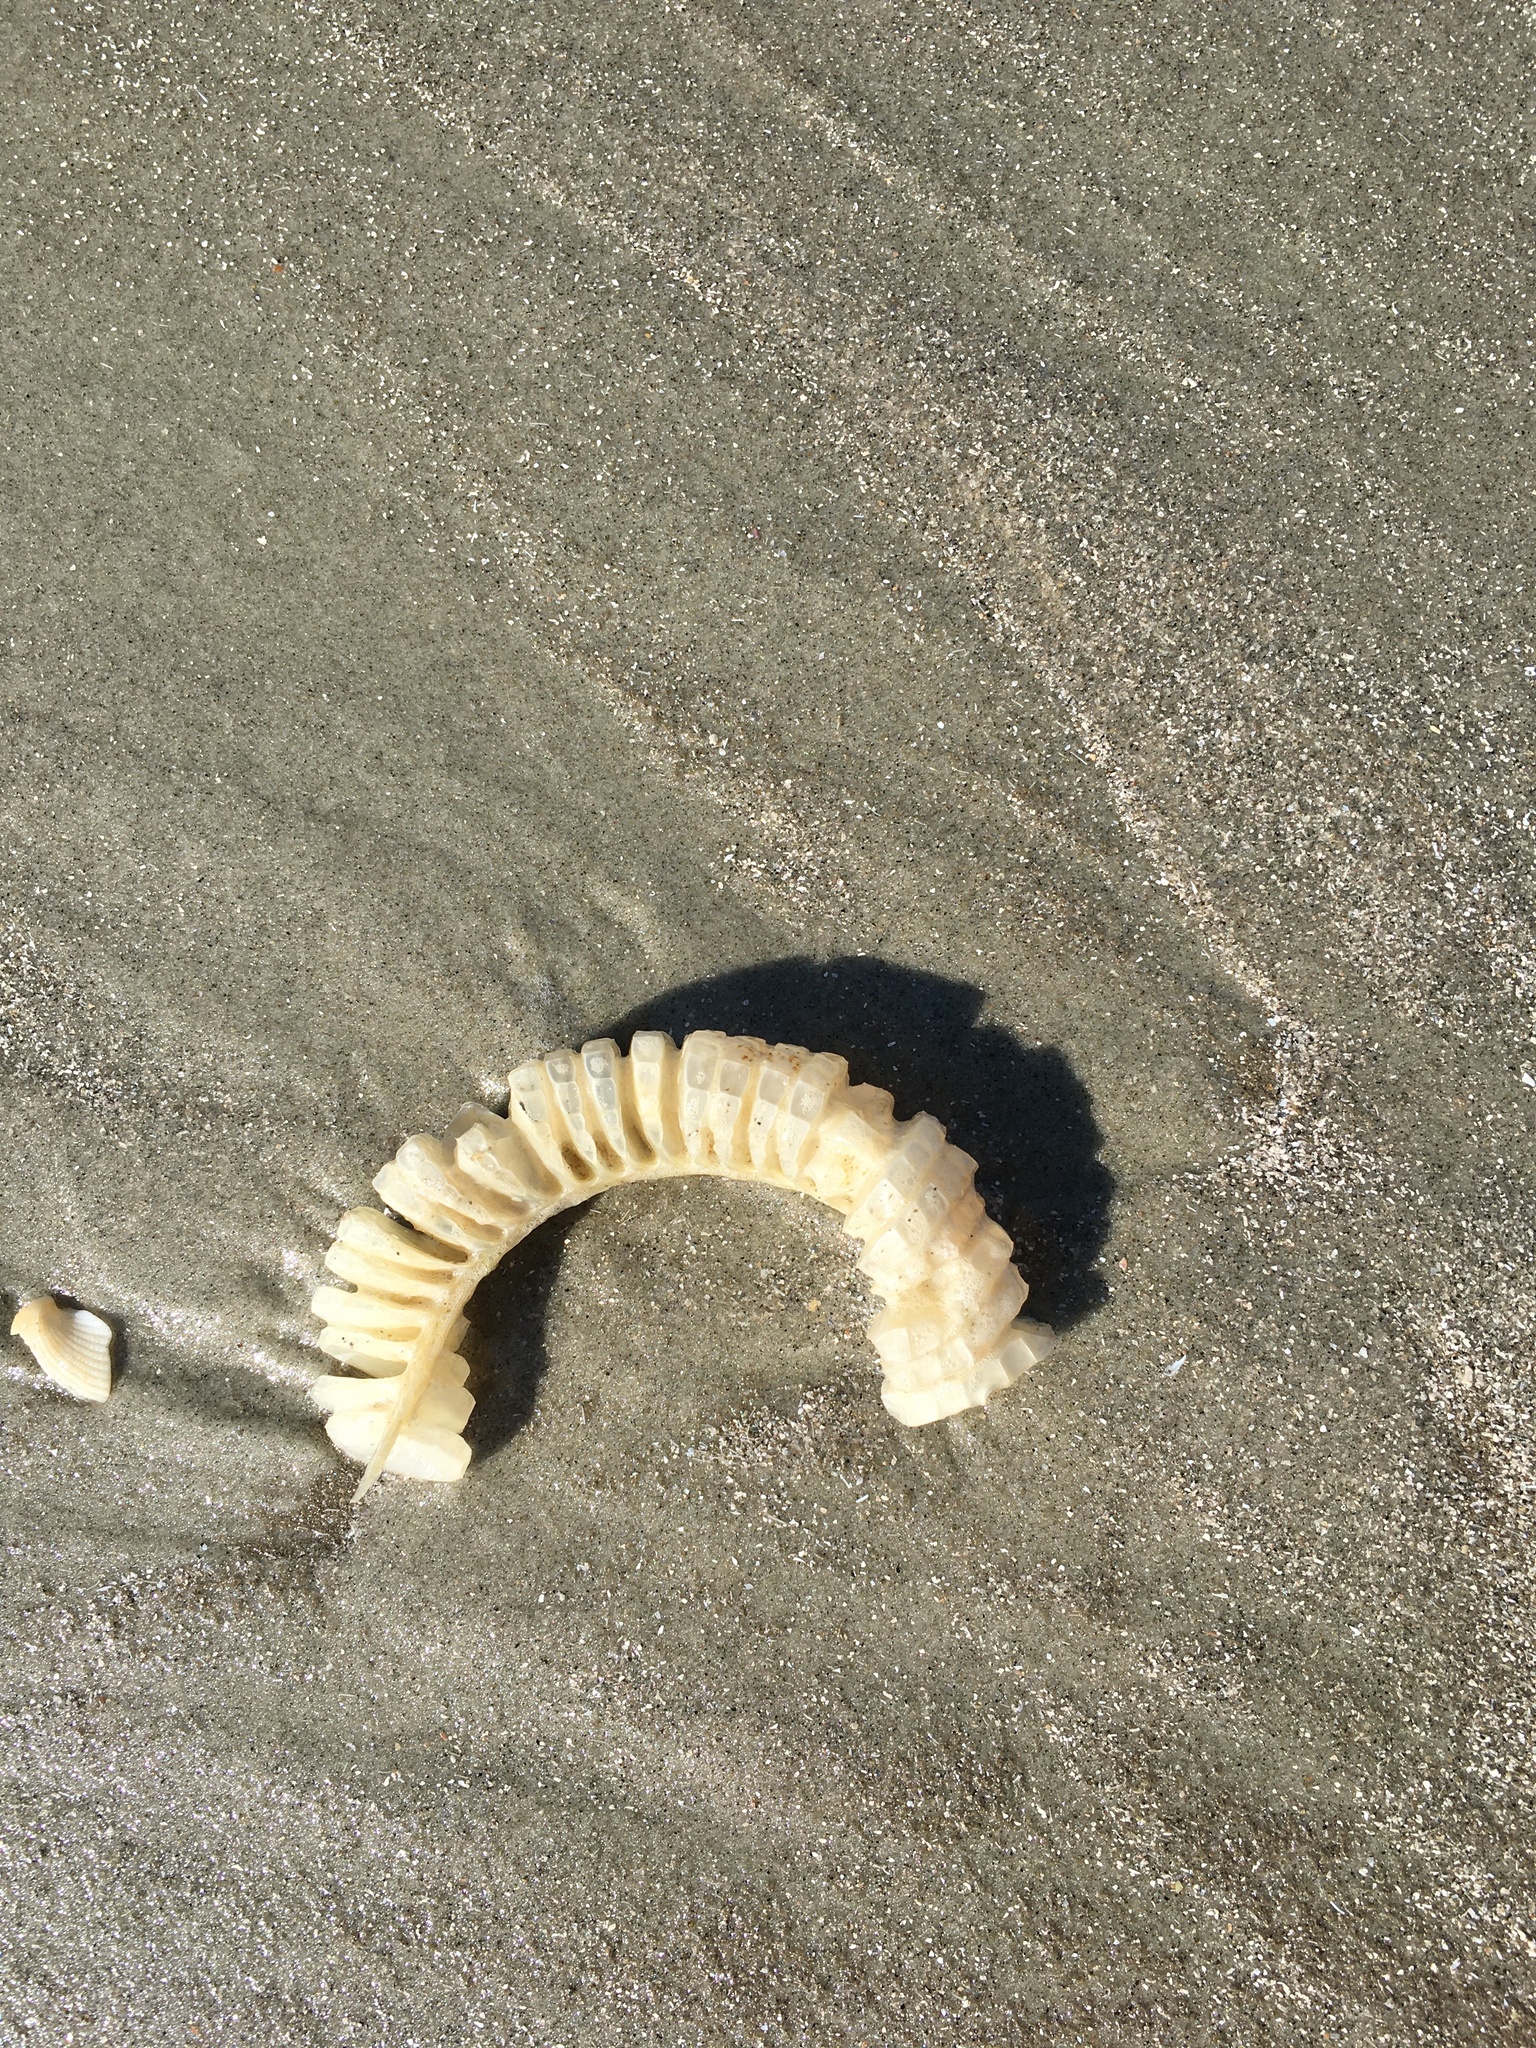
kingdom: Animalia
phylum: Mollusca
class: Gastropoda
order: Neogastropoda
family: Busyconidae
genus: Busycon
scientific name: Busycon carica
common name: Knobbed whelk
